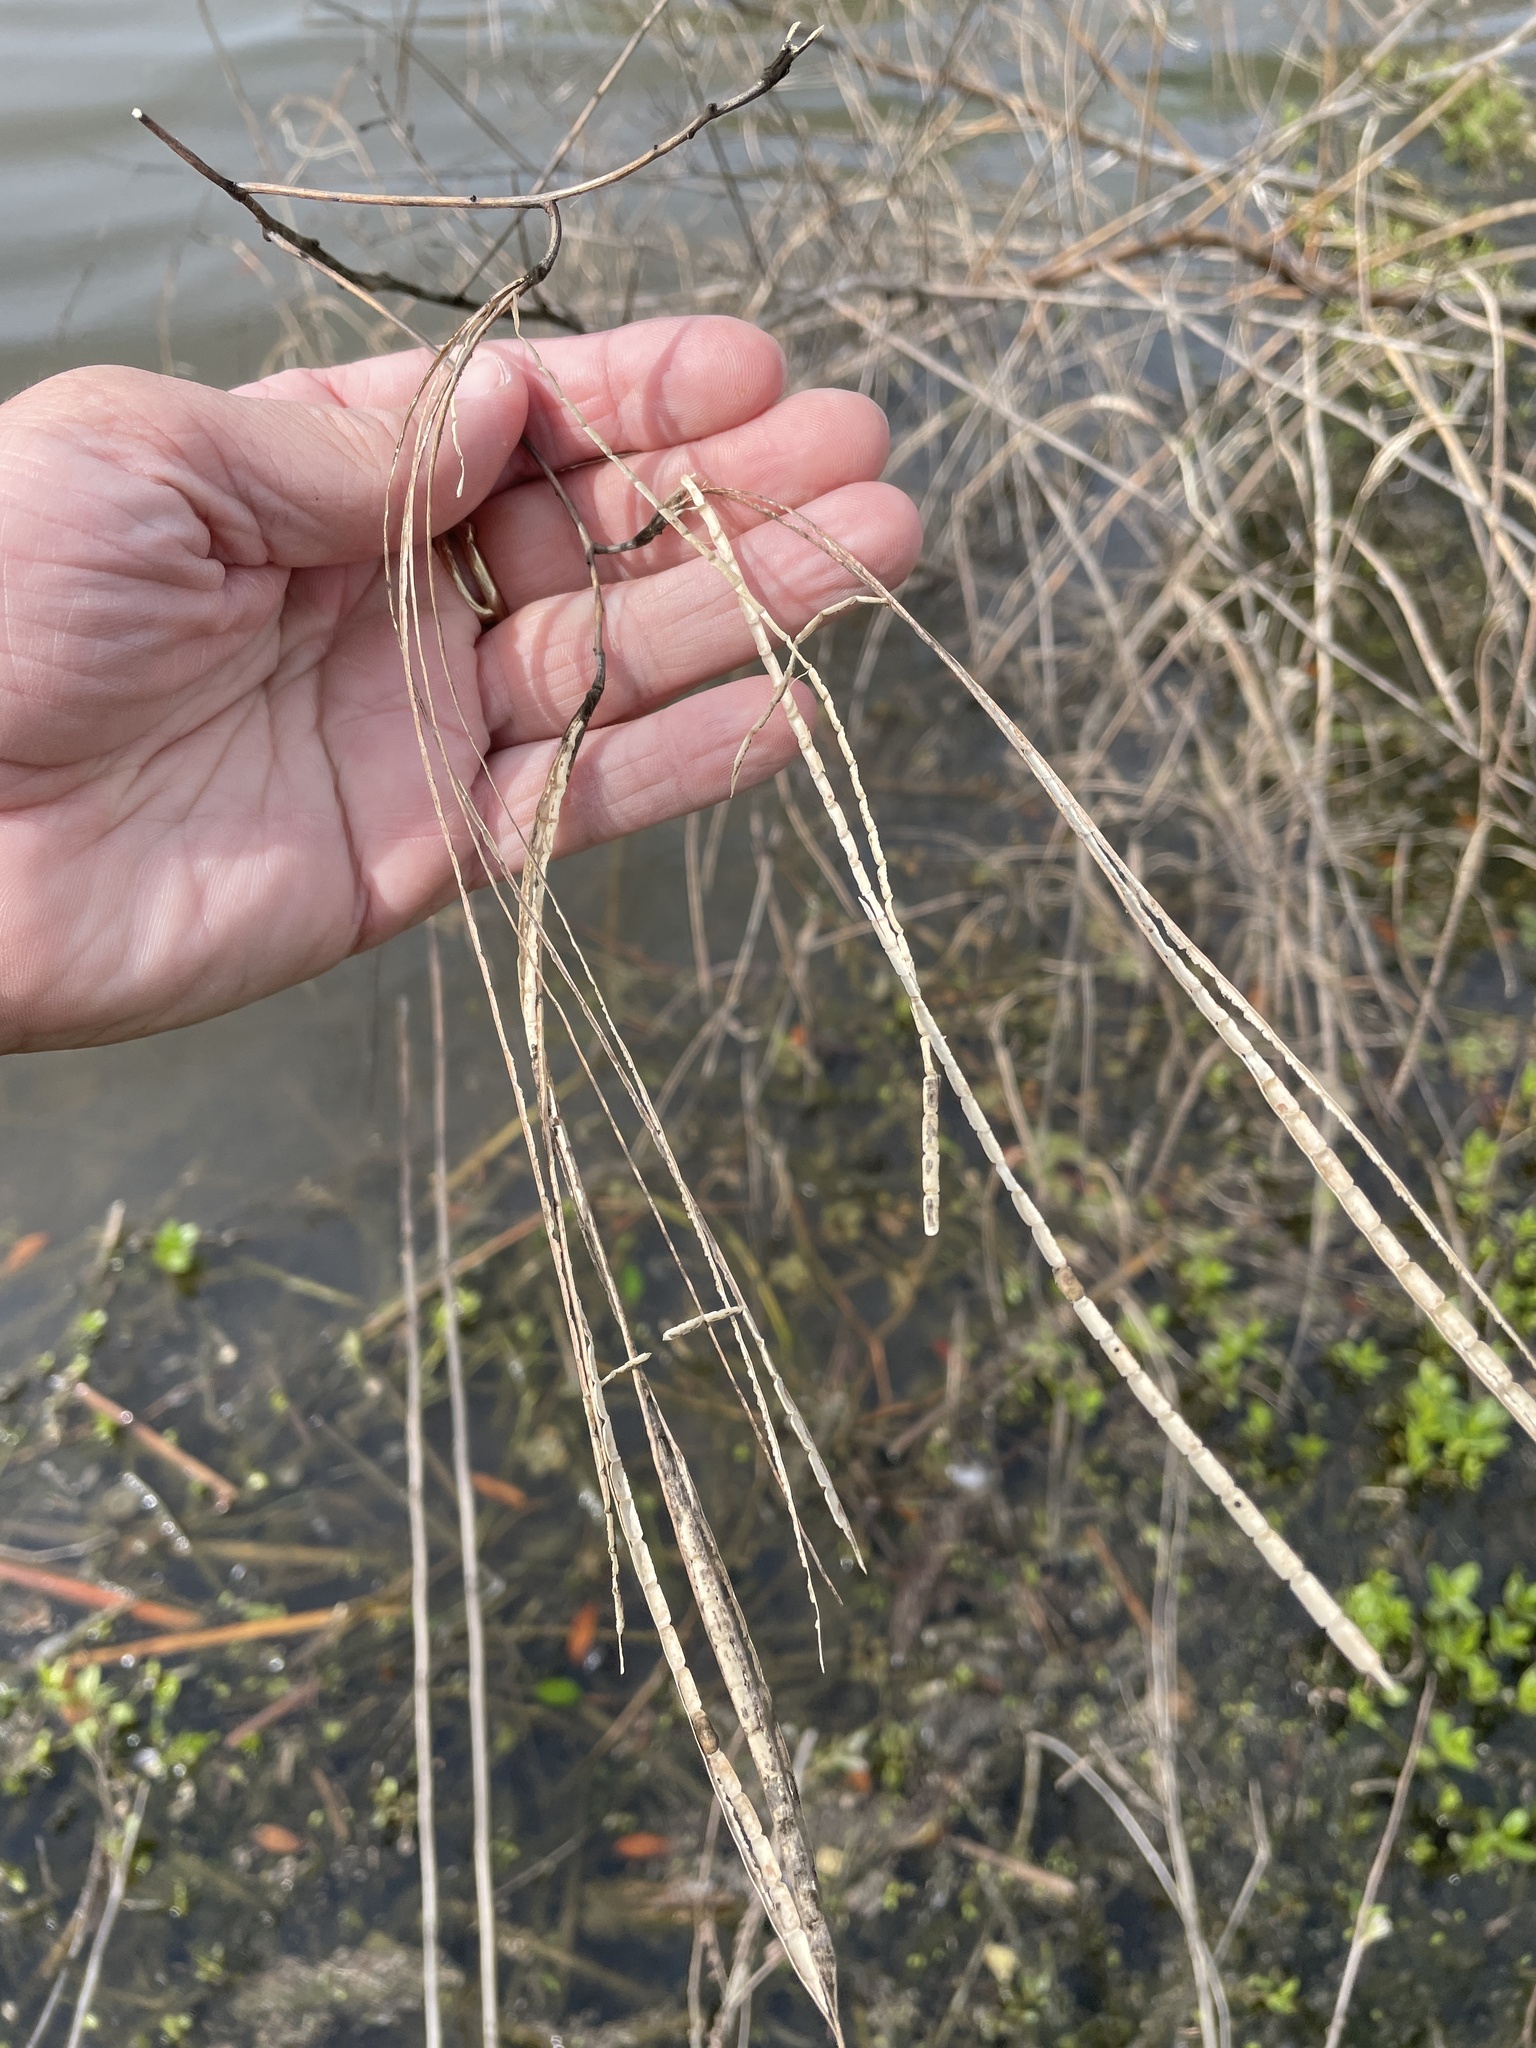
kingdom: Plantae
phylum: Tracheophyta
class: Magnoliopsida
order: Fabales
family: Fabaceae
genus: Sesbania
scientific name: Sesbania herbacea
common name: Bigpod sesbania
